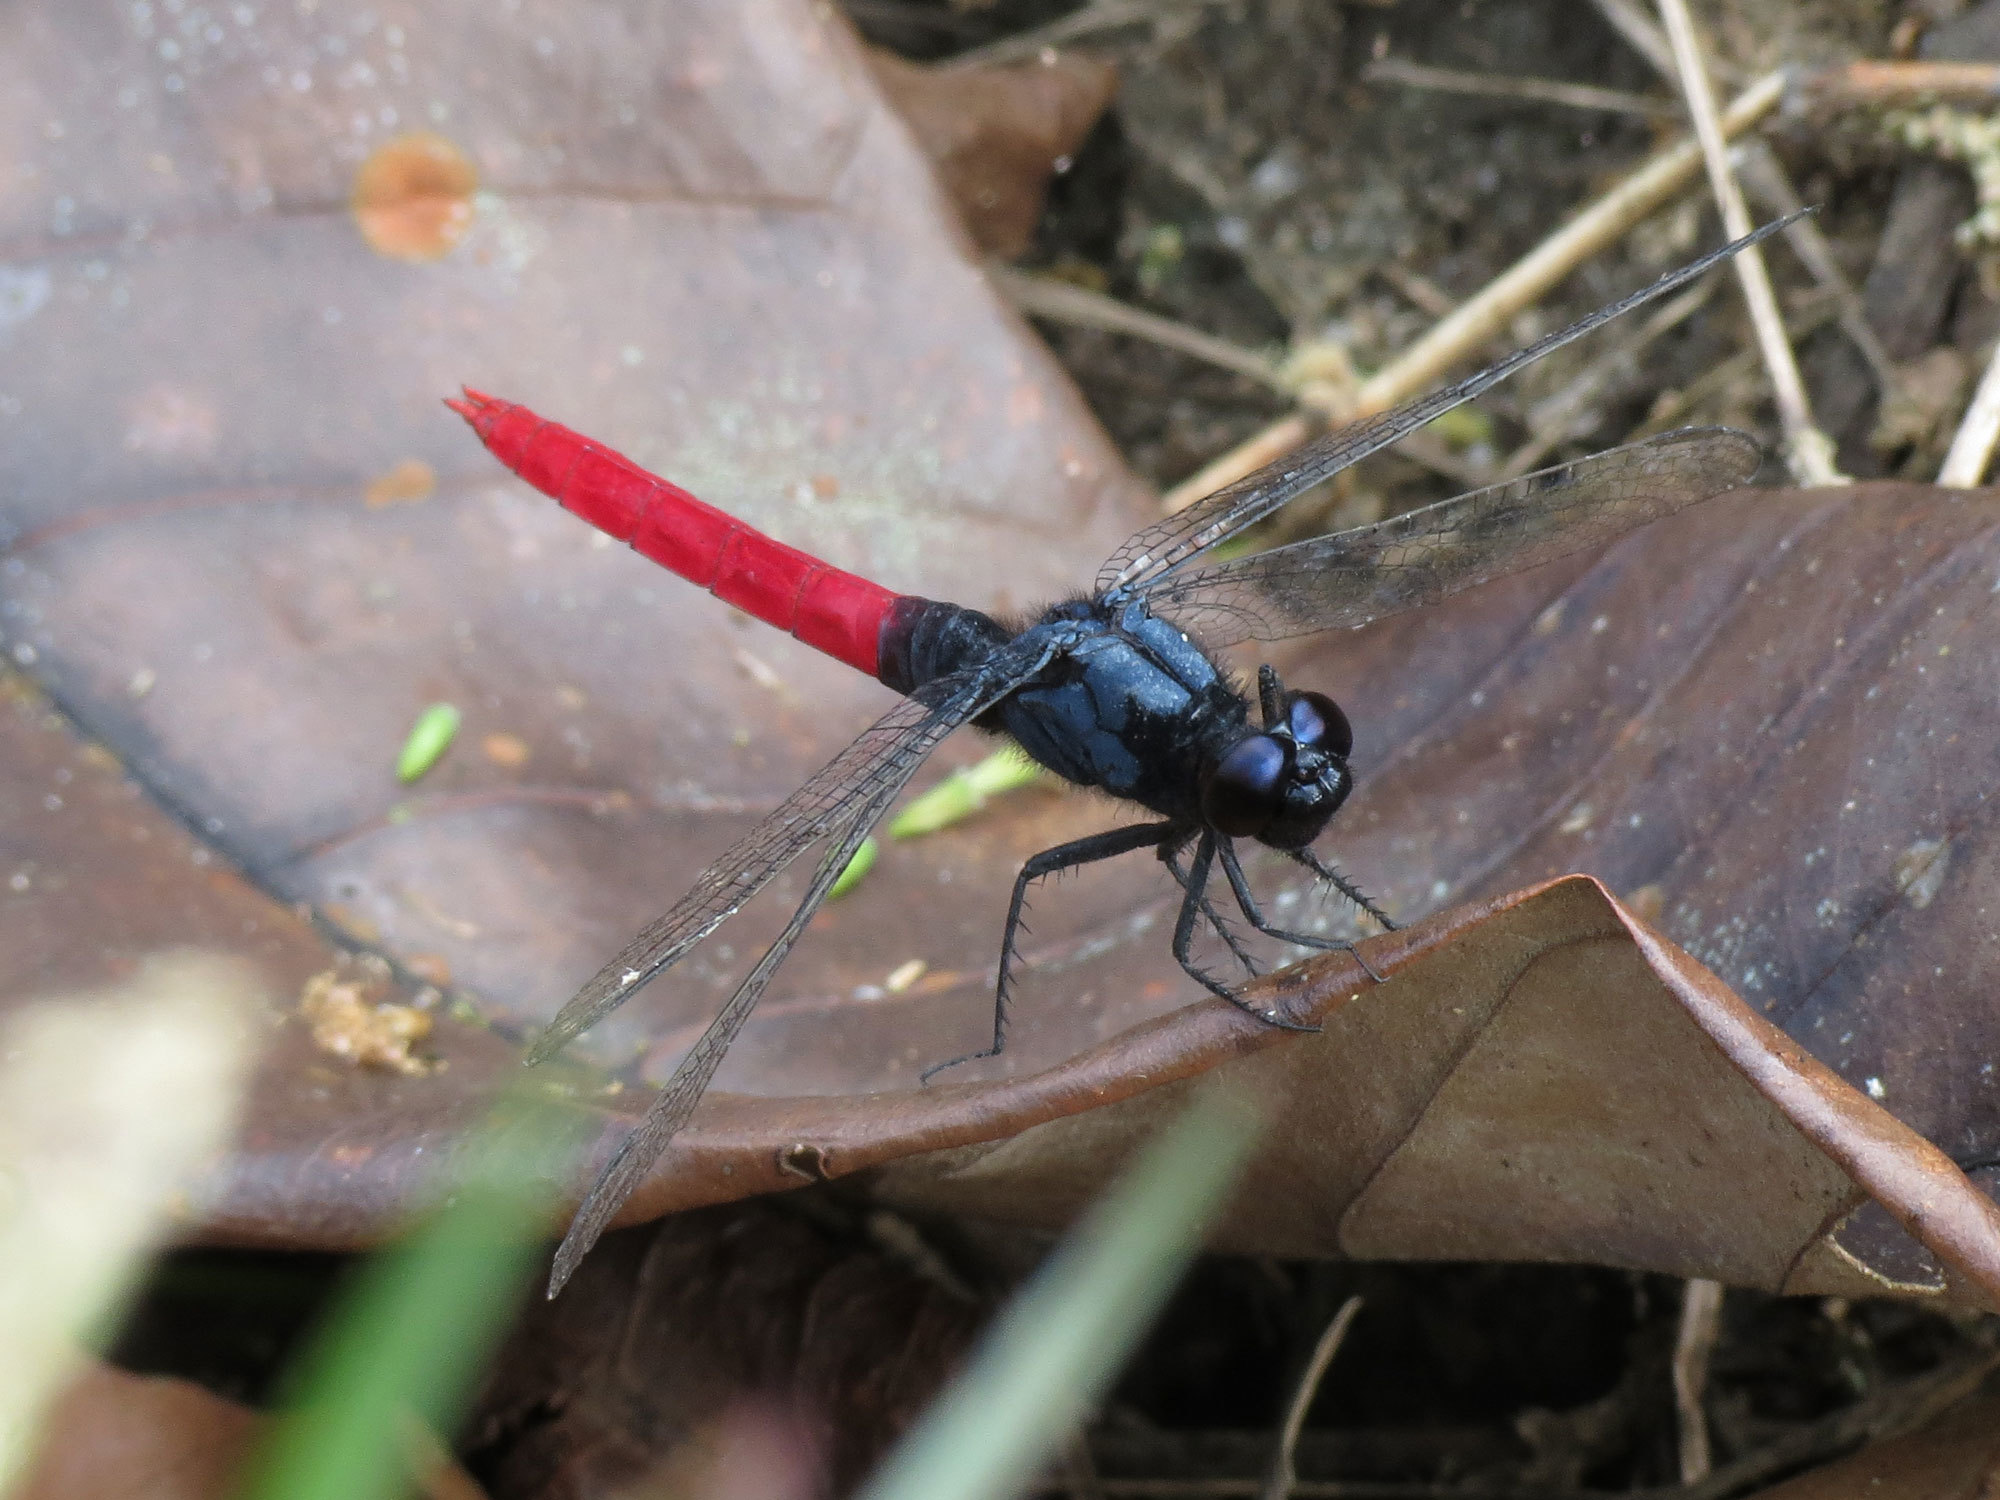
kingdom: Animalia
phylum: Arthropoda
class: Insecta
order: Odonata
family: Libellulidae
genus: Erythemis
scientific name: Erythemis peruviana
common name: Flame-tailed pondhawk
